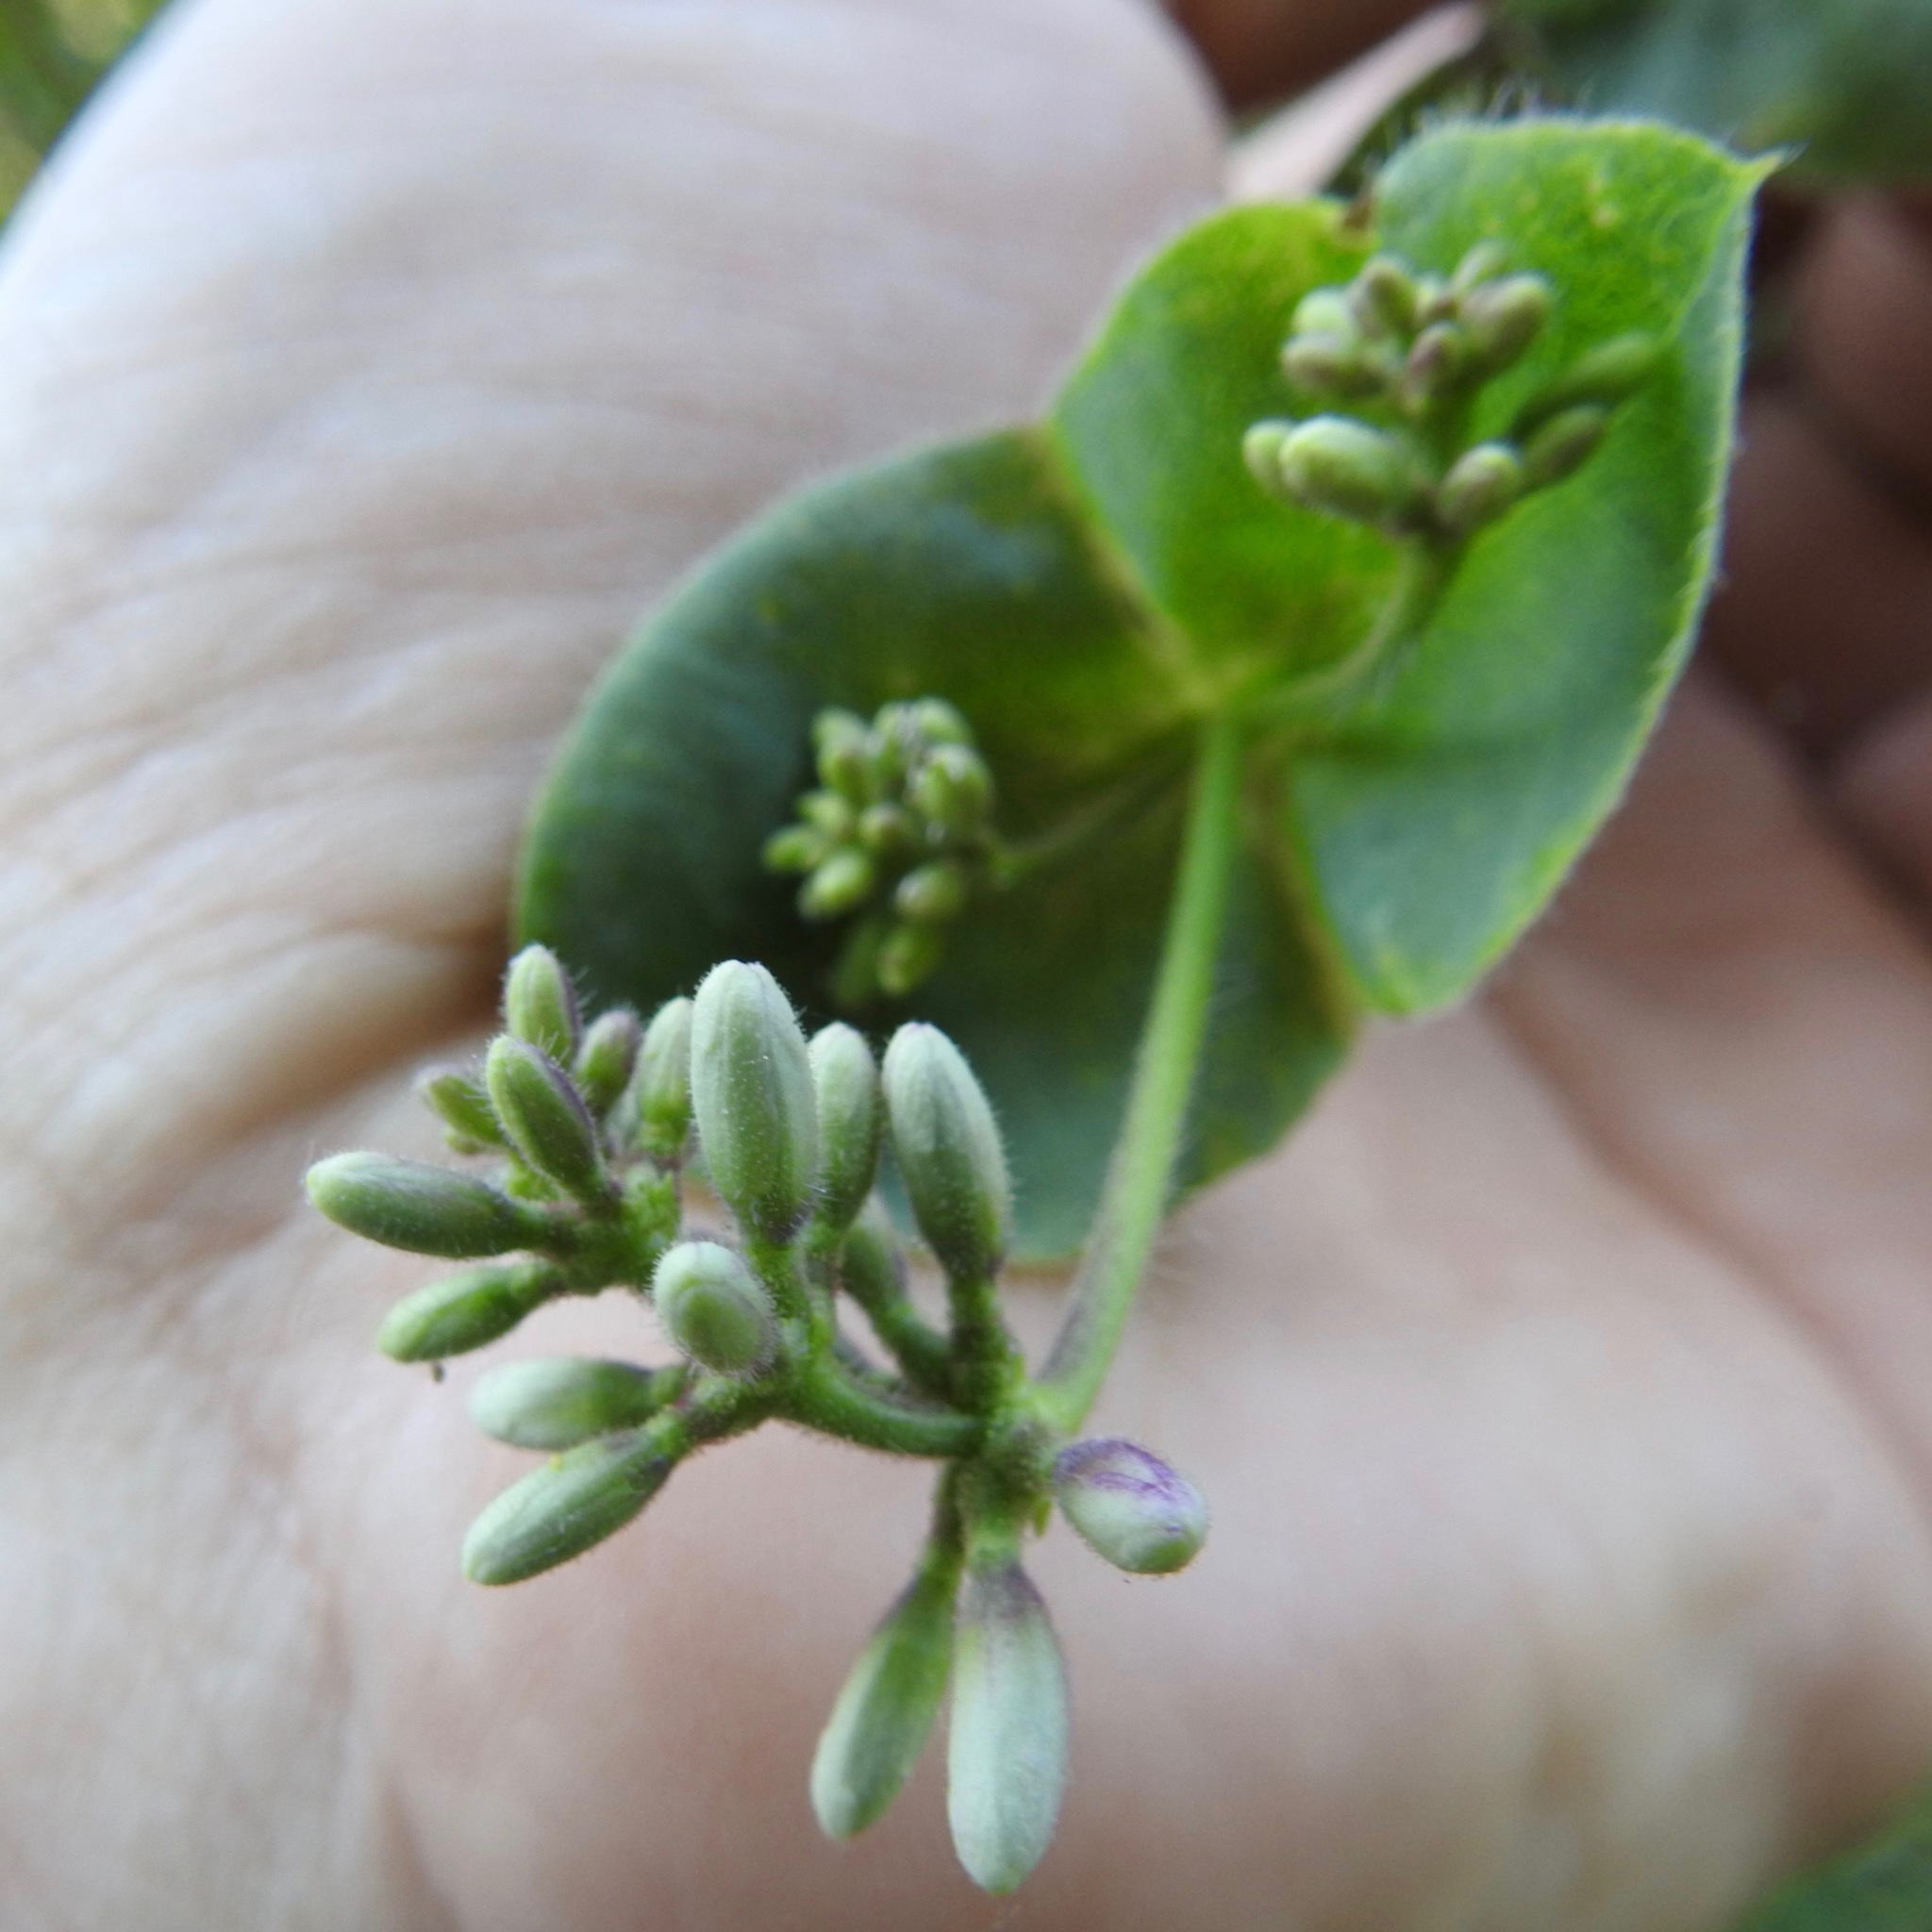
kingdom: Plantae
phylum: Tracheophyta
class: Magnoliopsida
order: Dipsacales
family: Caprifoliaceae
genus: Lonicera
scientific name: Lonicera hispidula
